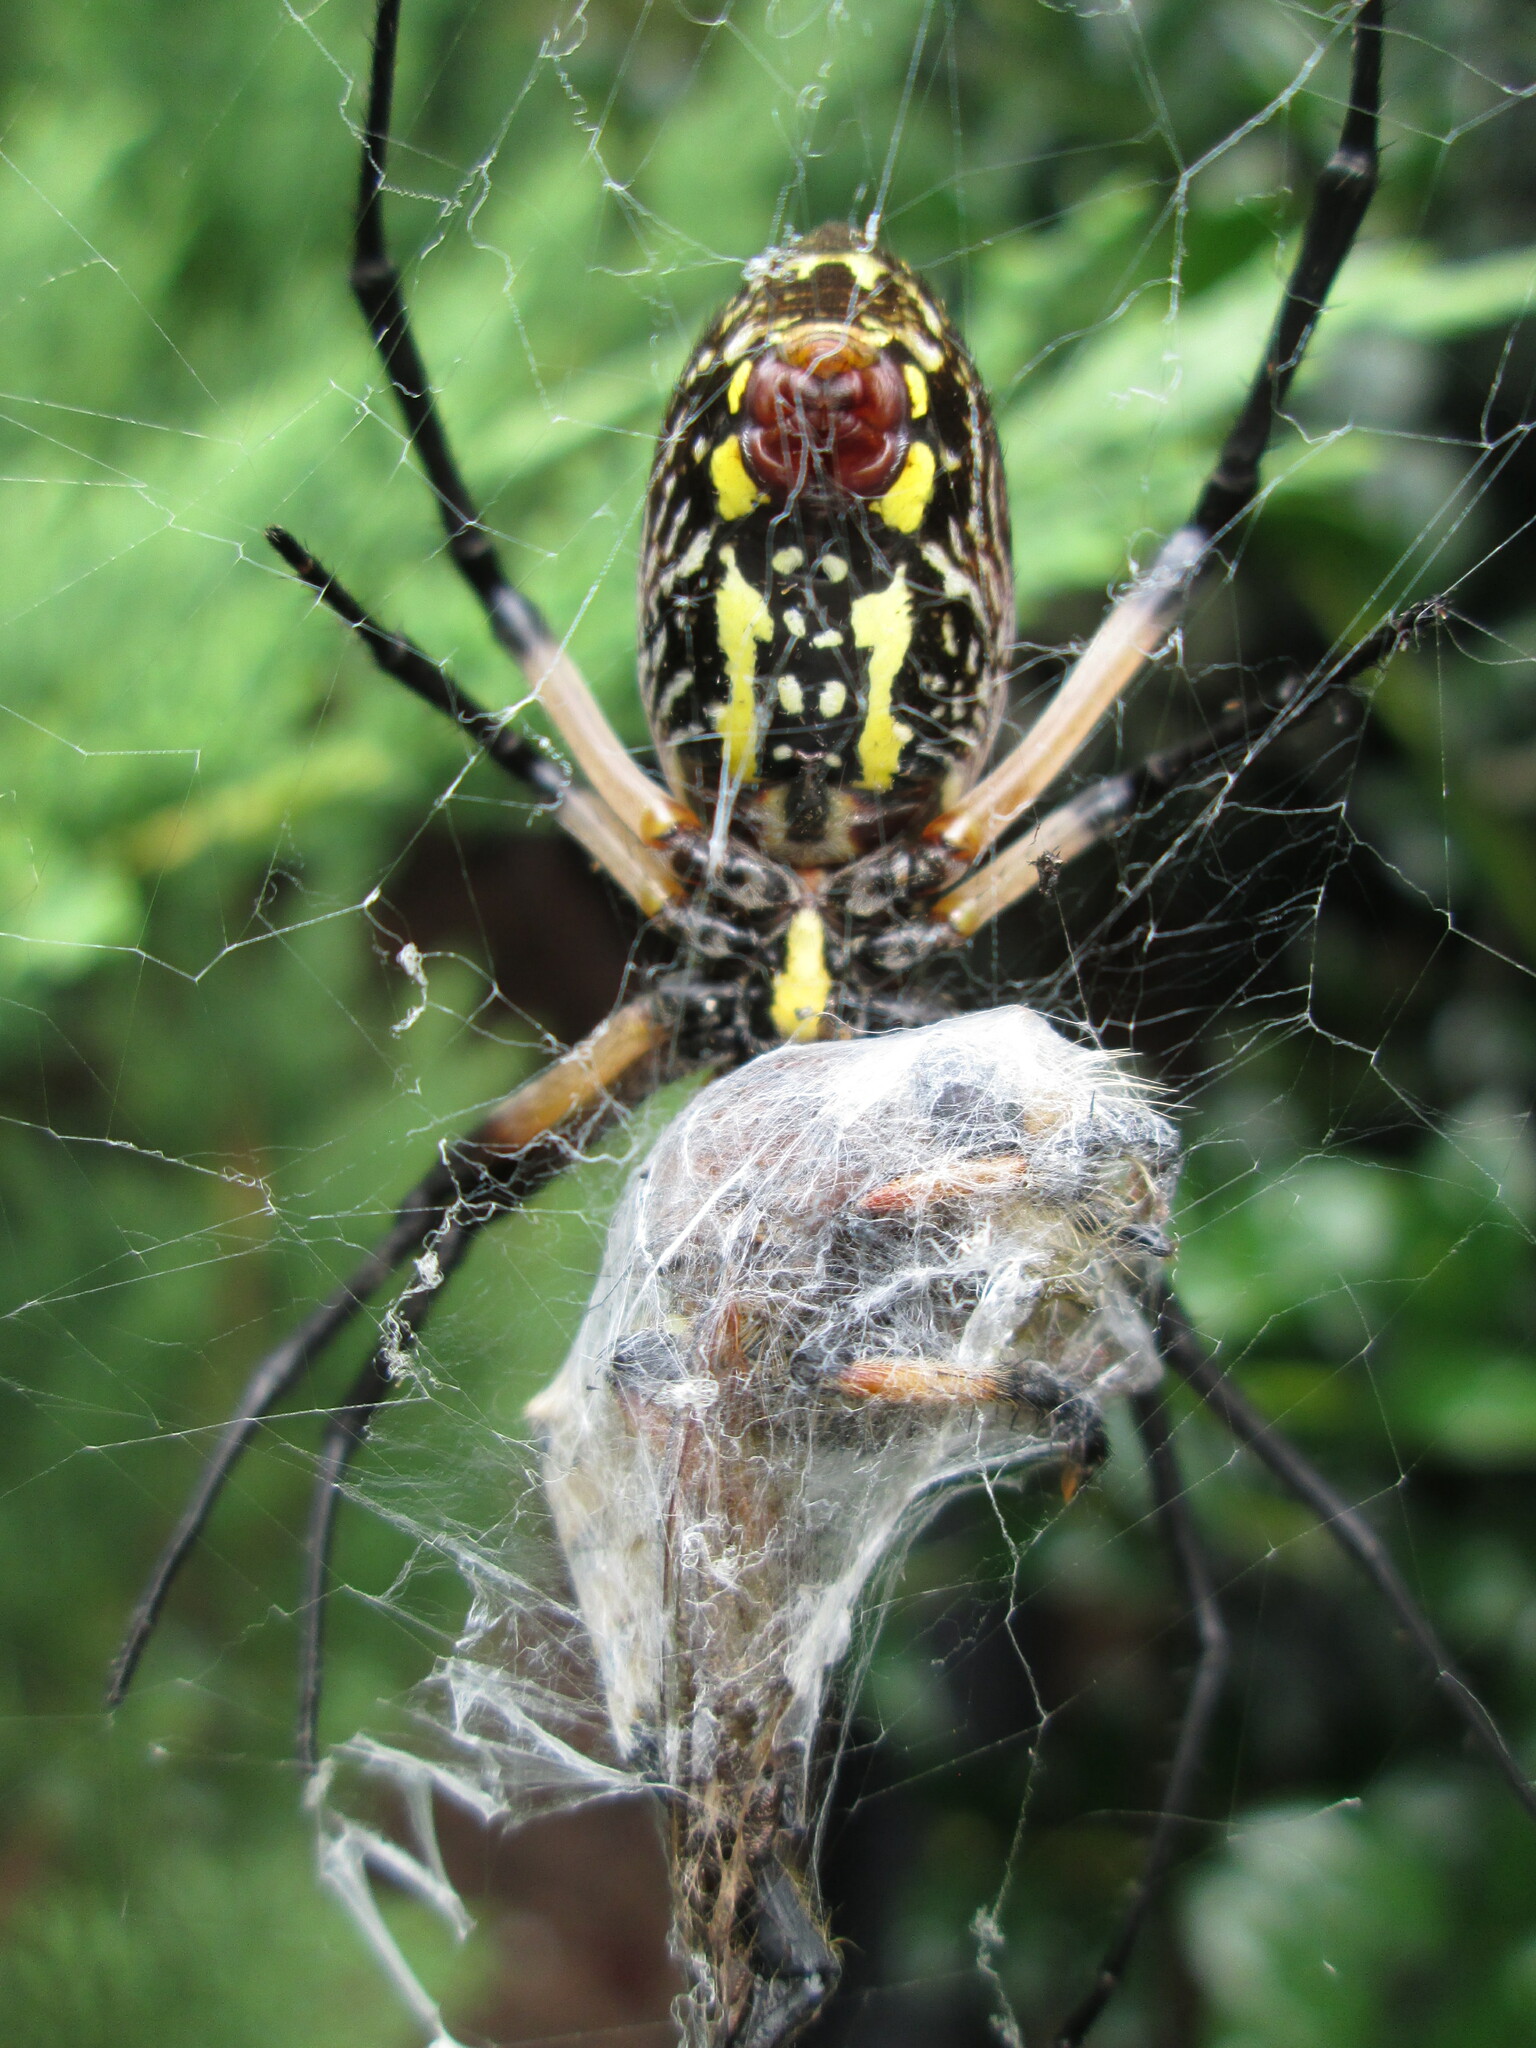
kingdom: Animalia
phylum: Arthropoda
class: Arachnida
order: Araneae
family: Araneidae
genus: Argiope
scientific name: Argiope aurantia
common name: Orb weavers
